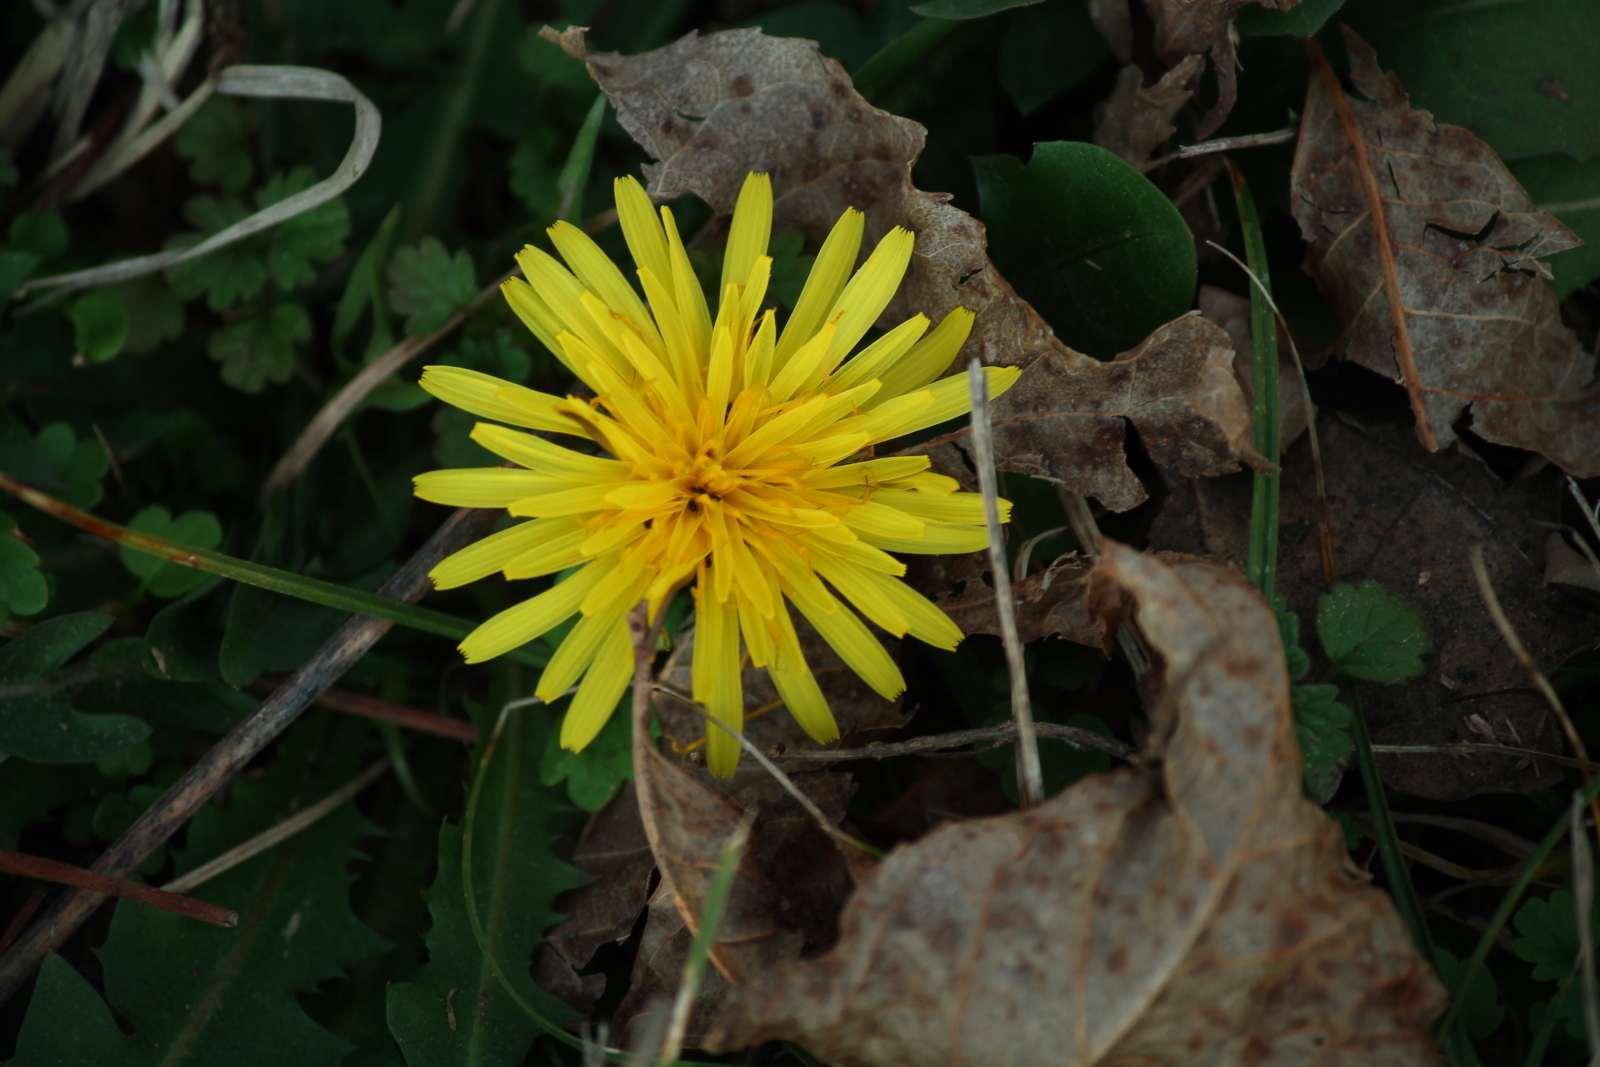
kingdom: Plantae
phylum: Tracheophyta
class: Magnoliopsida
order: Asterales
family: Asteraceae
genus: Taraxacum
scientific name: Taraxacum officinale
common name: Common dandelion
